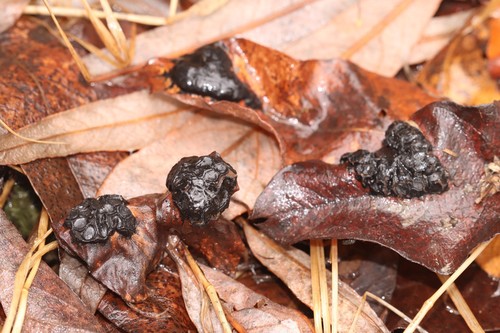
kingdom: Fungi
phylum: Ascomycota
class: Leotiomycetes
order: Rhytismatales
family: Rhytismataceae
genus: Rhytisma
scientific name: Rhytisma salicinum
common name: Willow tarspot
